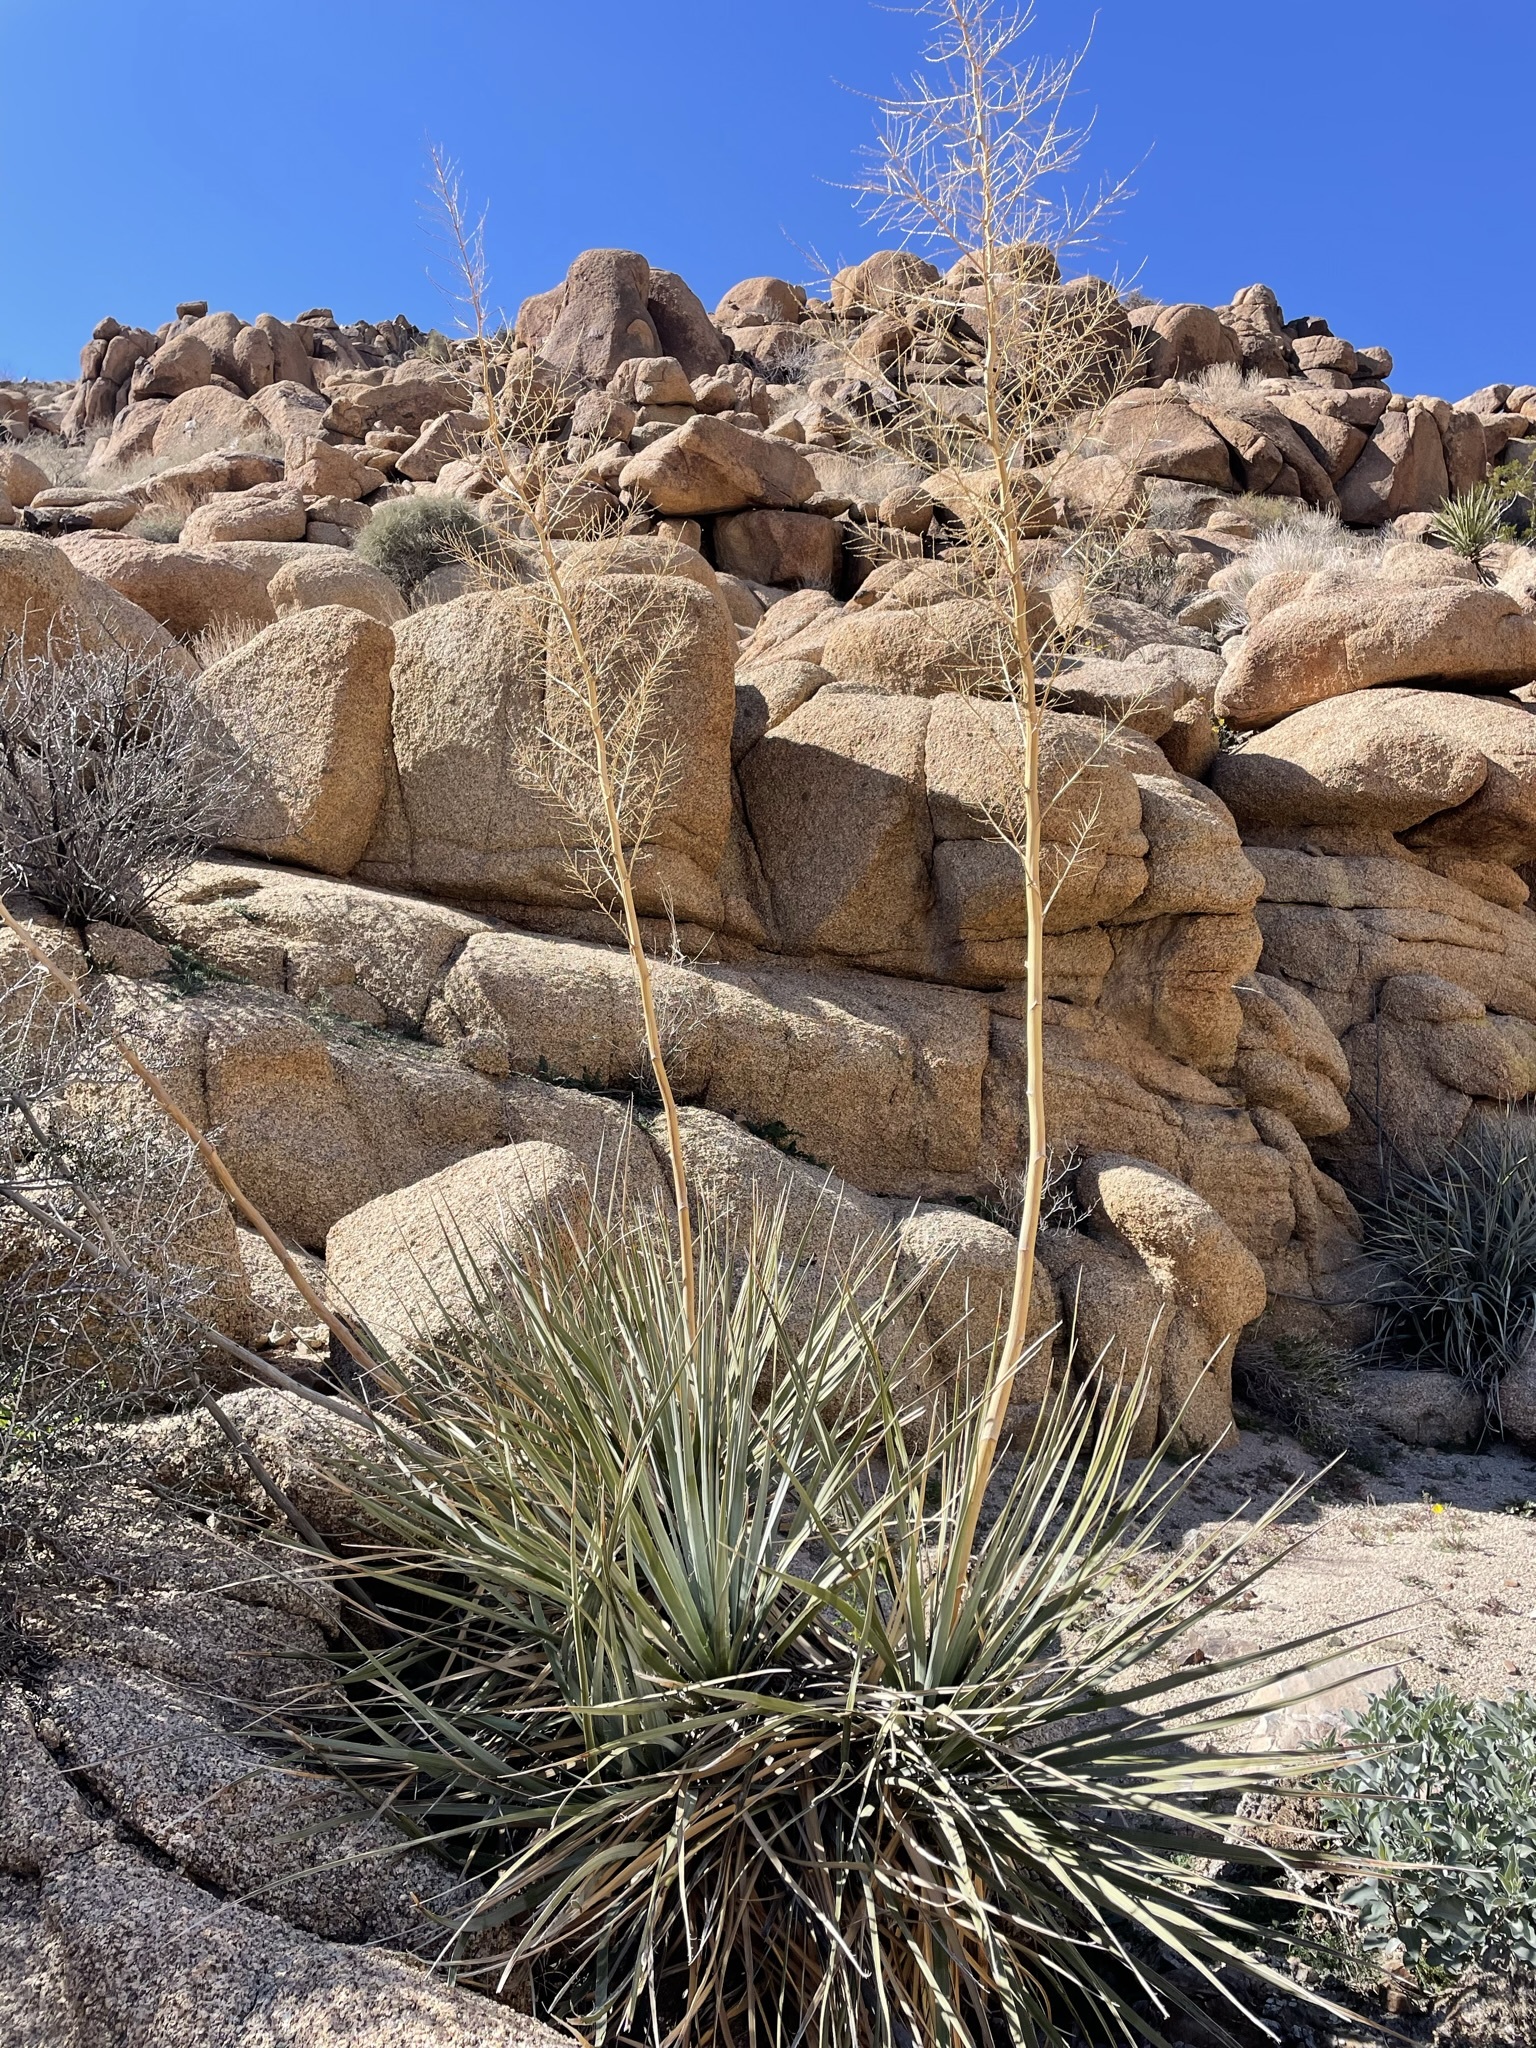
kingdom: Plantae
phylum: Tracheophyta
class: Liliopsida
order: Asparagales
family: Asparagaceae
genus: Nolina
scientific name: Nolina bigelovii
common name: Bigelow bear-grass
